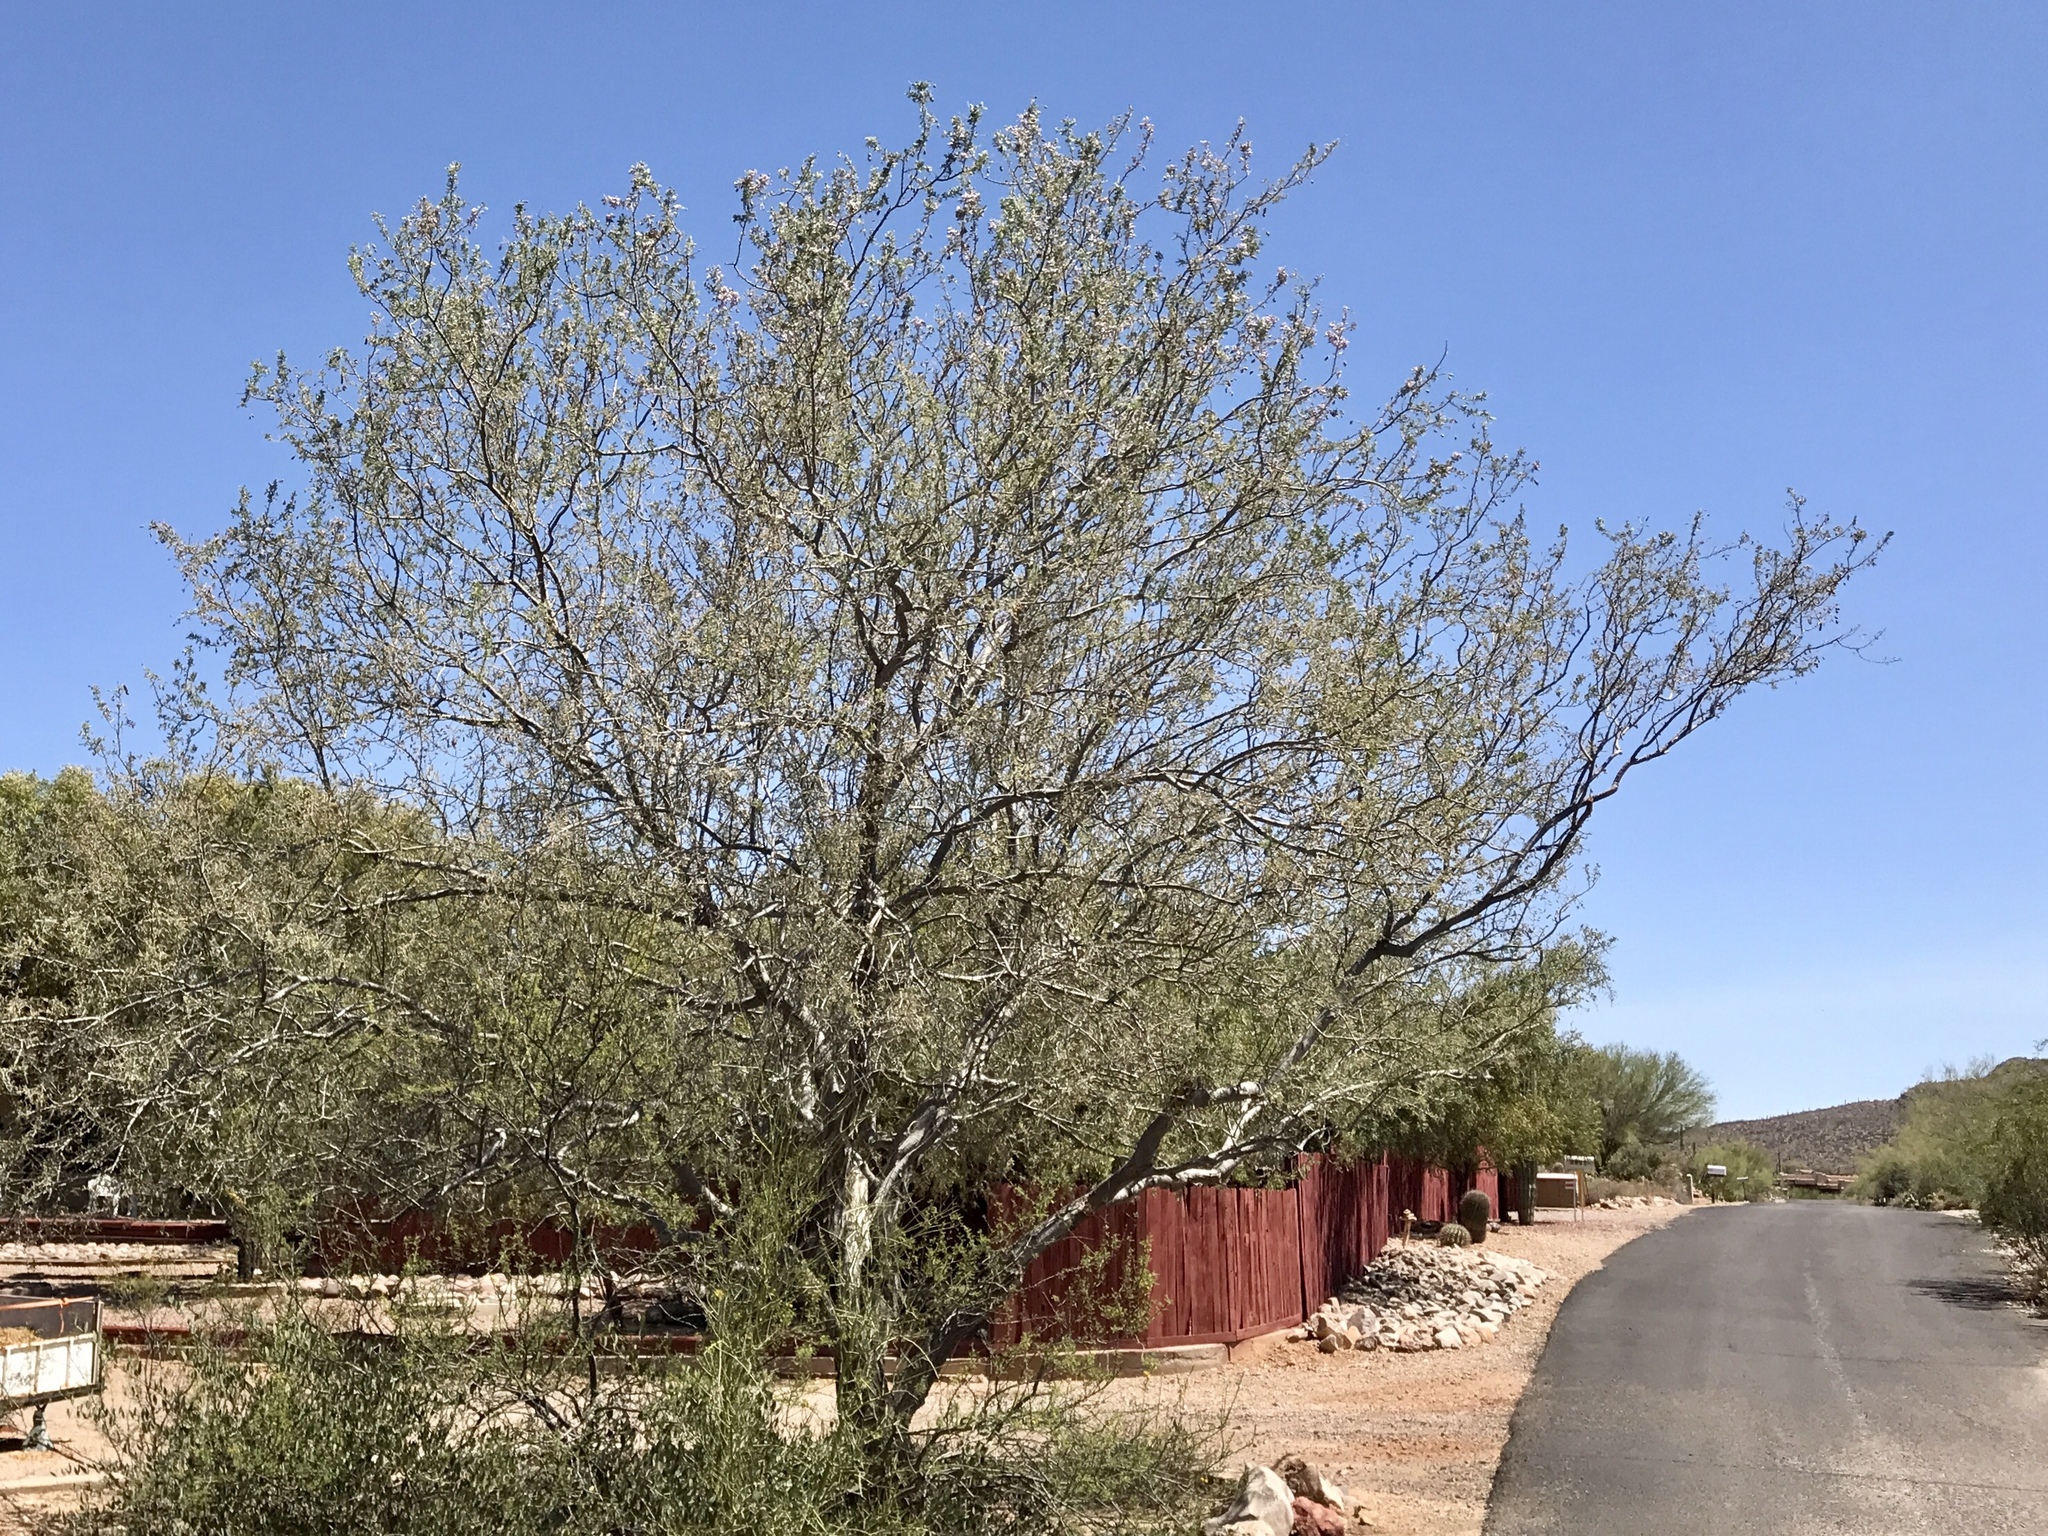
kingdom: Plantae
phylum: Tracheophyta
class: Magnoliopsida
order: Fabales
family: Fabaceae
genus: Olneya
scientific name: Olneya tesota
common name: Desert ironwood
